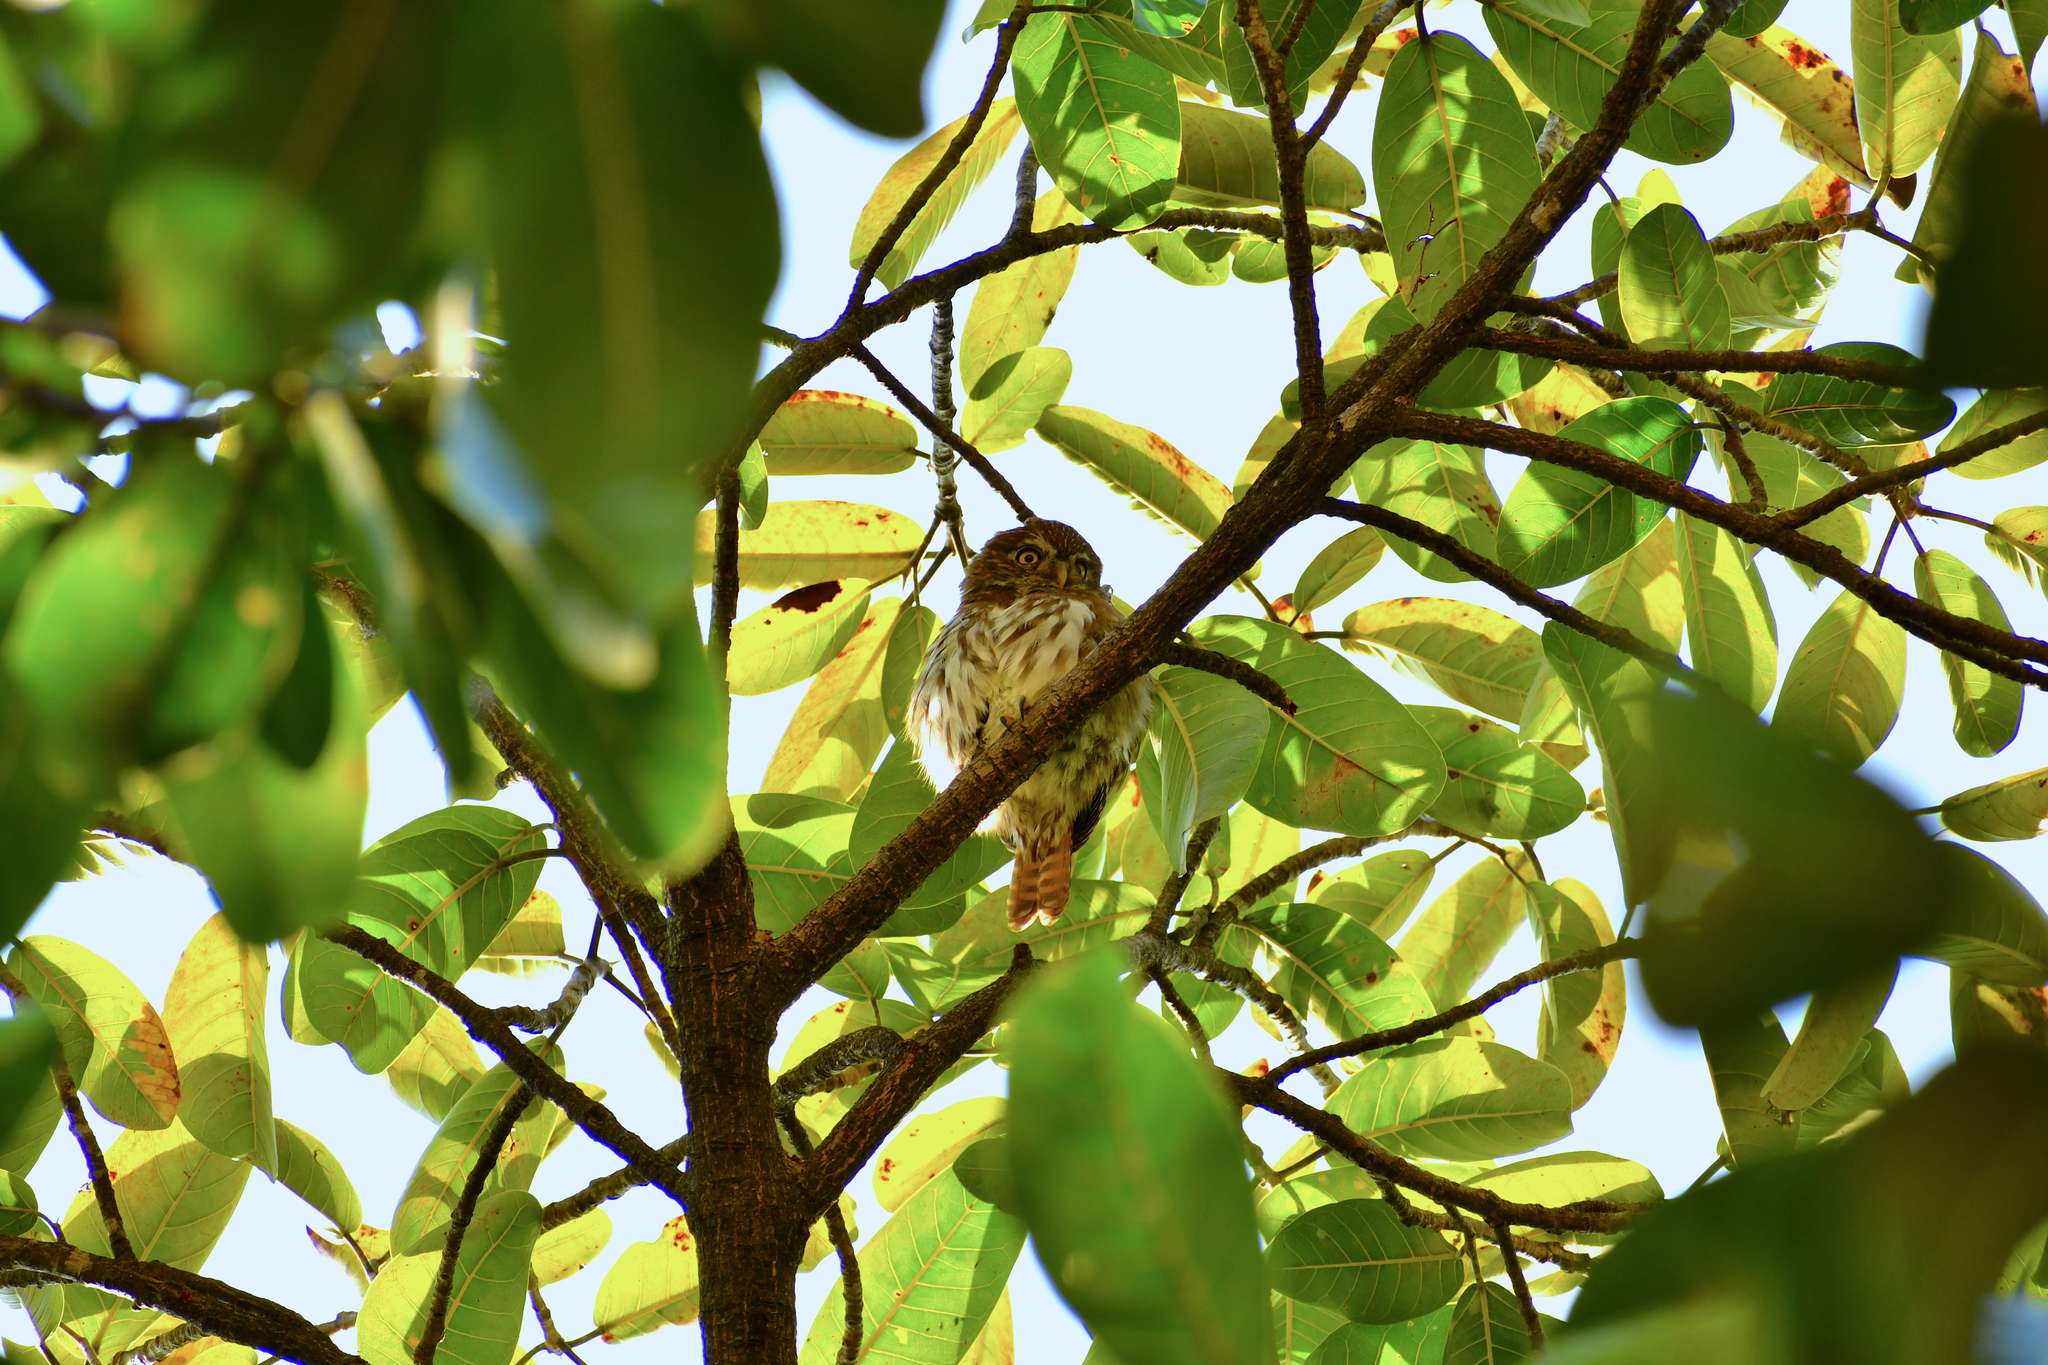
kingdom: Animalia
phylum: Chordata
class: Aves
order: Strigiformes
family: Strigidae
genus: Glaucidium
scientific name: Glaucidium brasilianum
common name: Ferruginous pygmy-owl
